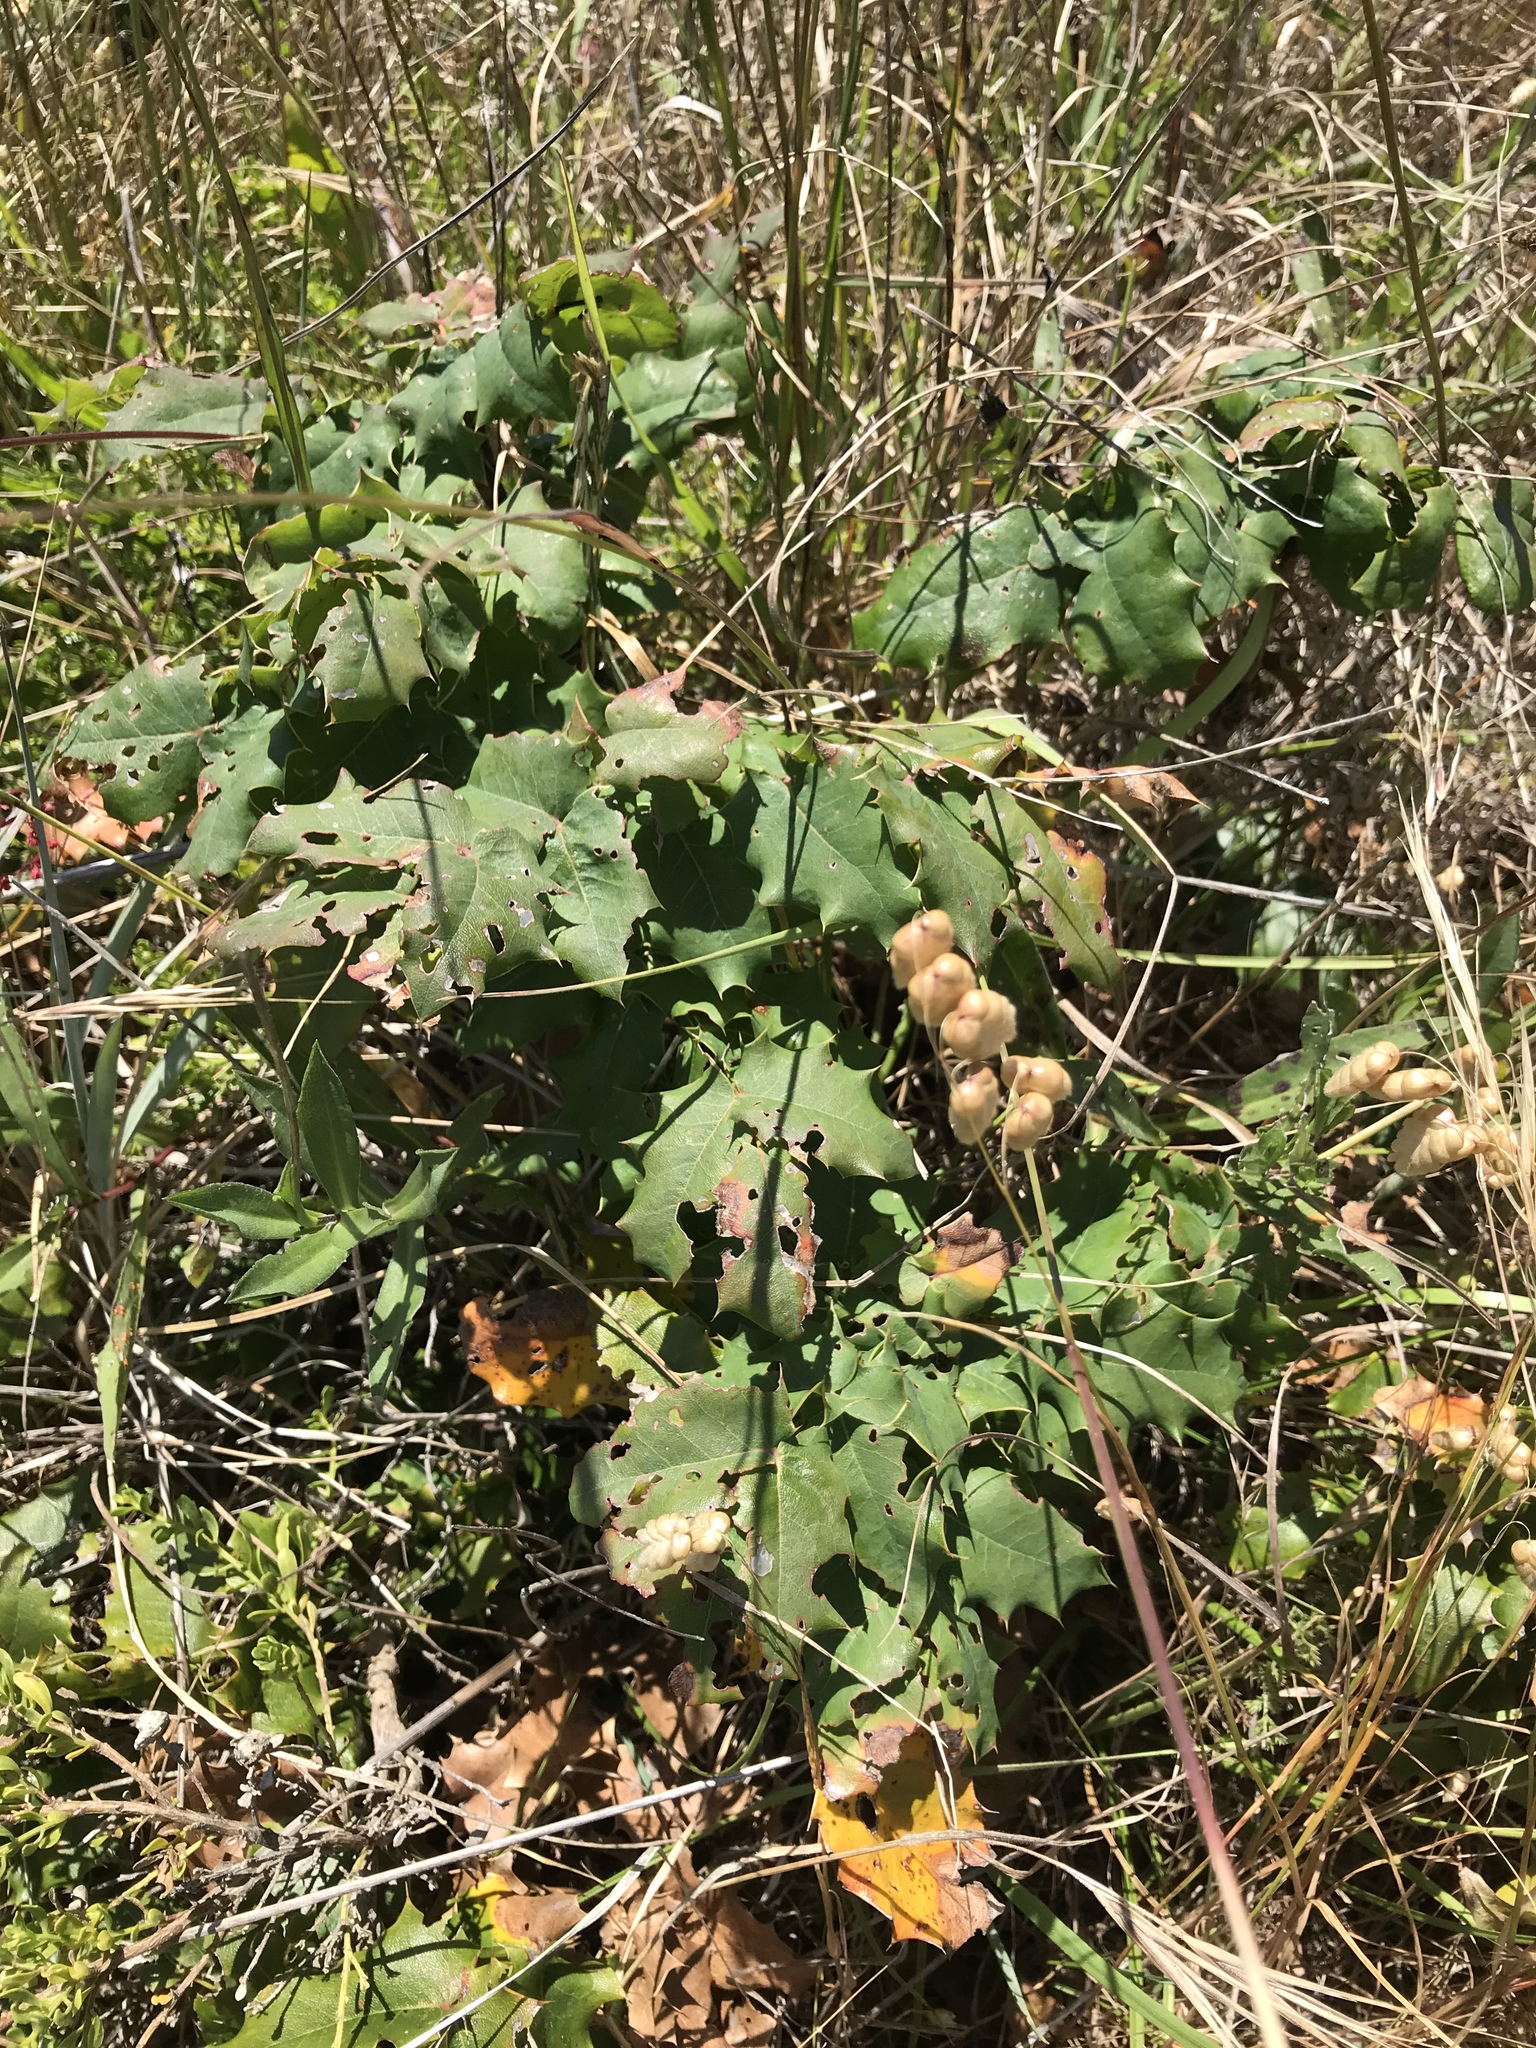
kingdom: Plantae
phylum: Tracheophyta
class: Magnoliopsida
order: Ranunculales
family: Berberidaceae
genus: Mahonia
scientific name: Mahonia
